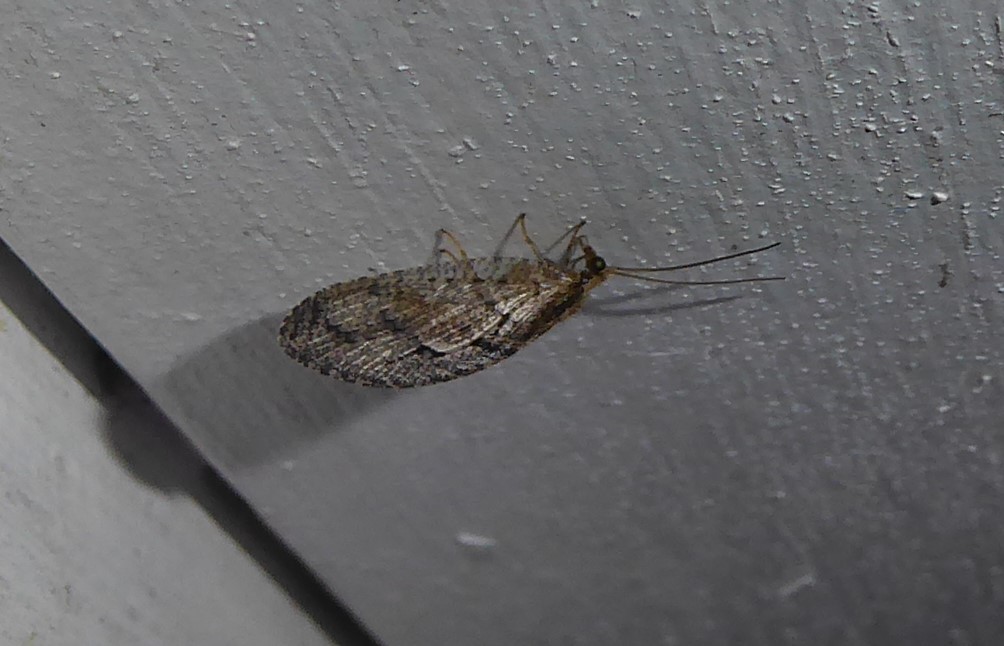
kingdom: Animalia
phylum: Arthropoda
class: Insecta
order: Neuroptera
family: Hemerobiidae
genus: Wesmaelius
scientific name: Wesmaelius subnebulosus
